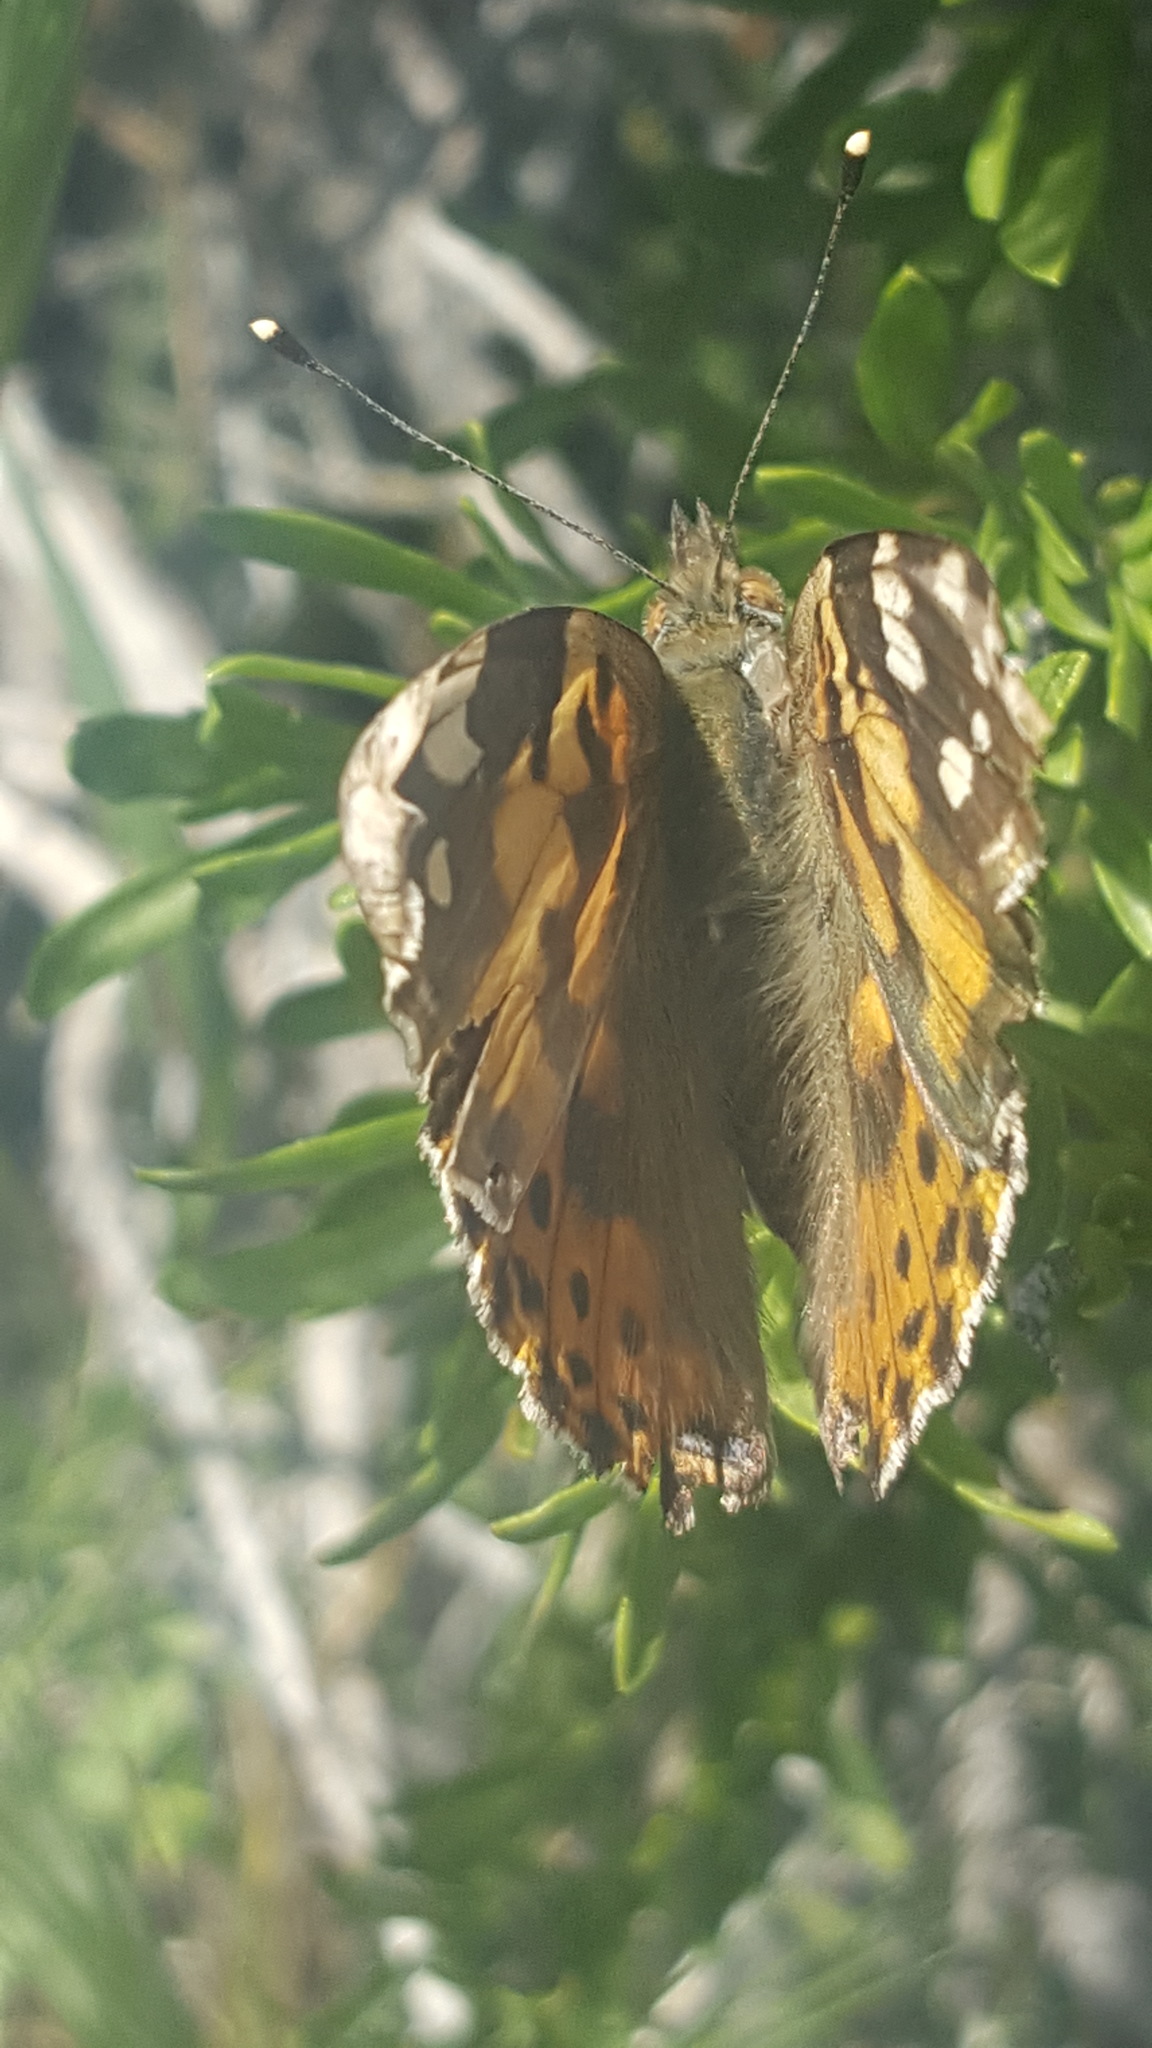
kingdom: Animalia
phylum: Arthropoda
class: Insecta
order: Lepidoptera
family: Nymphalidae
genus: Vanessa
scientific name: Vanessa cardui
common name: Painted lady
